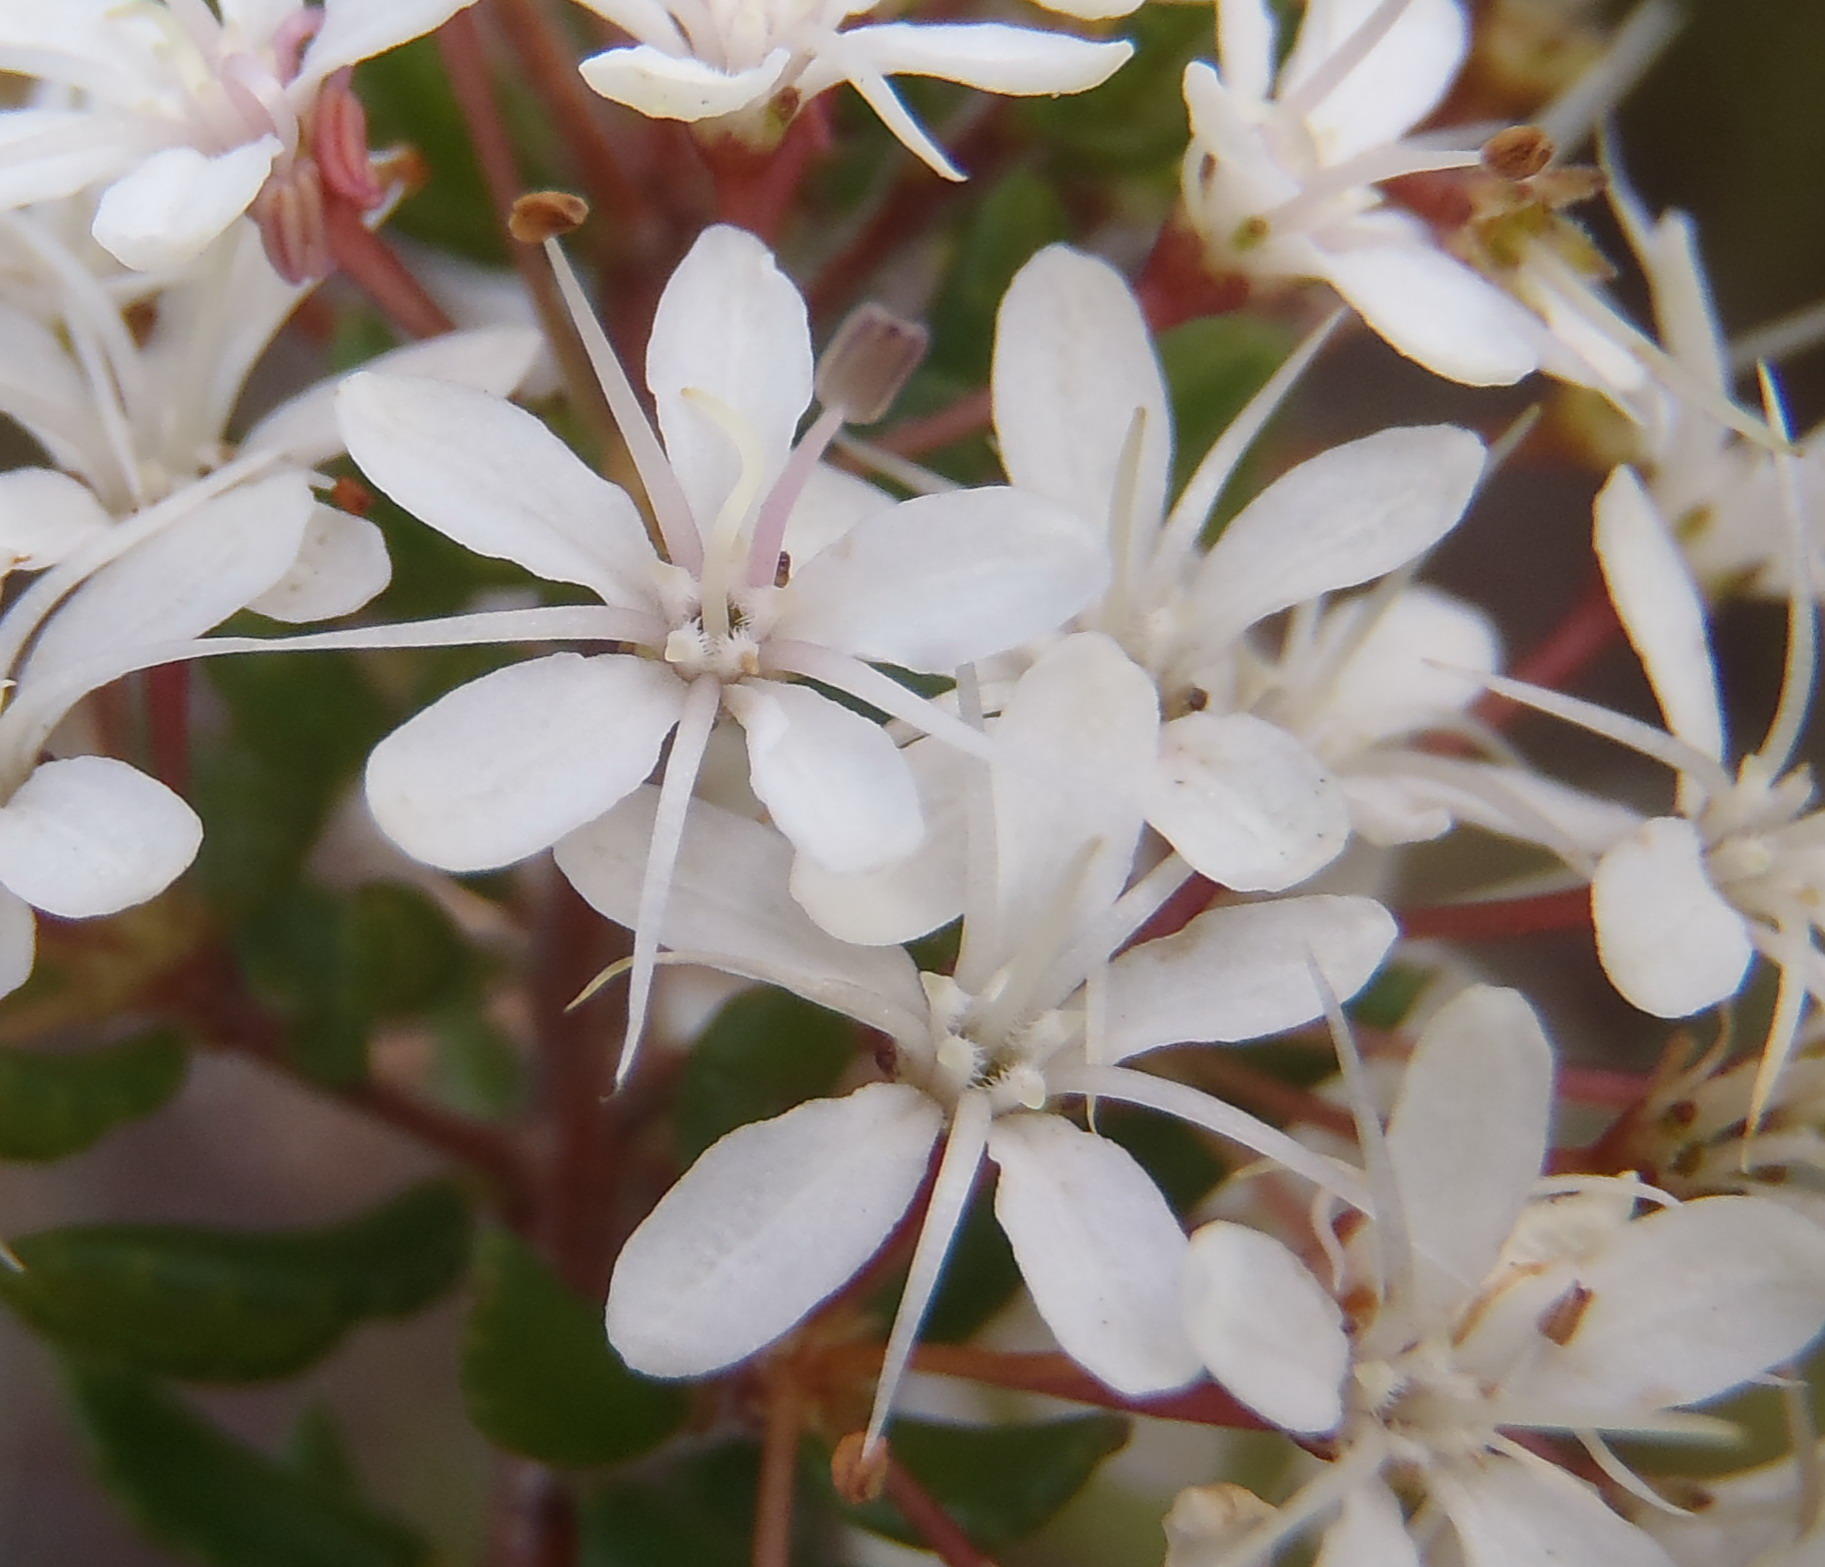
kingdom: Plantae
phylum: Tracheophyta
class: Magnoliopsida
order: Sapindales
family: Rutaceae
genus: Agathosma
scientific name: Agathosma ovata
